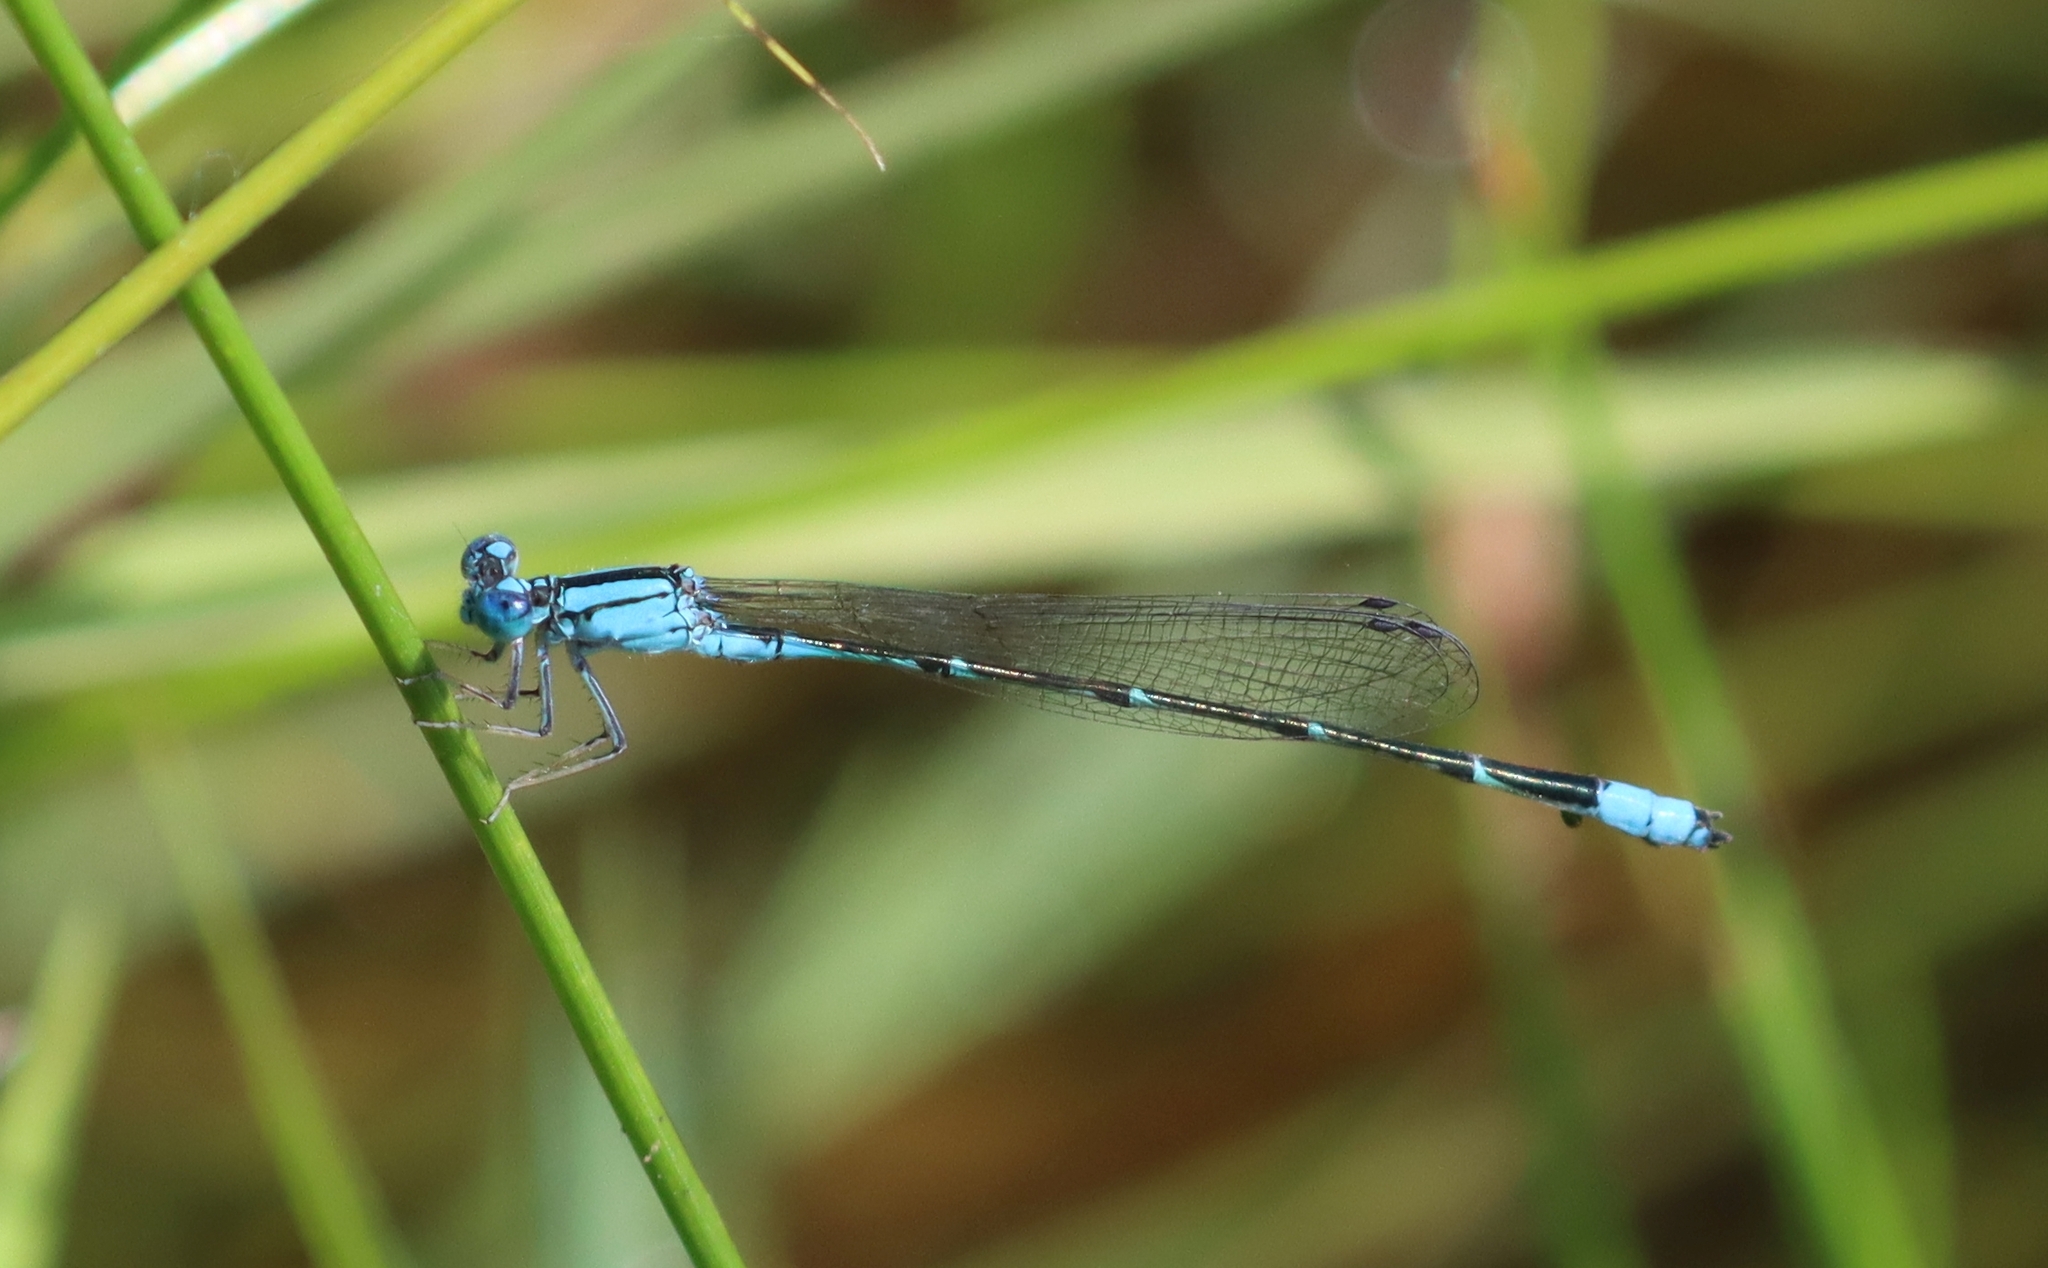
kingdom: Animalia
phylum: Arthropoda
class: Insecta
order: Odonata
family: Coenagrionidae
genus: Enallagma
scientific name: Enallagma traviatum
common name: Slender bluet
